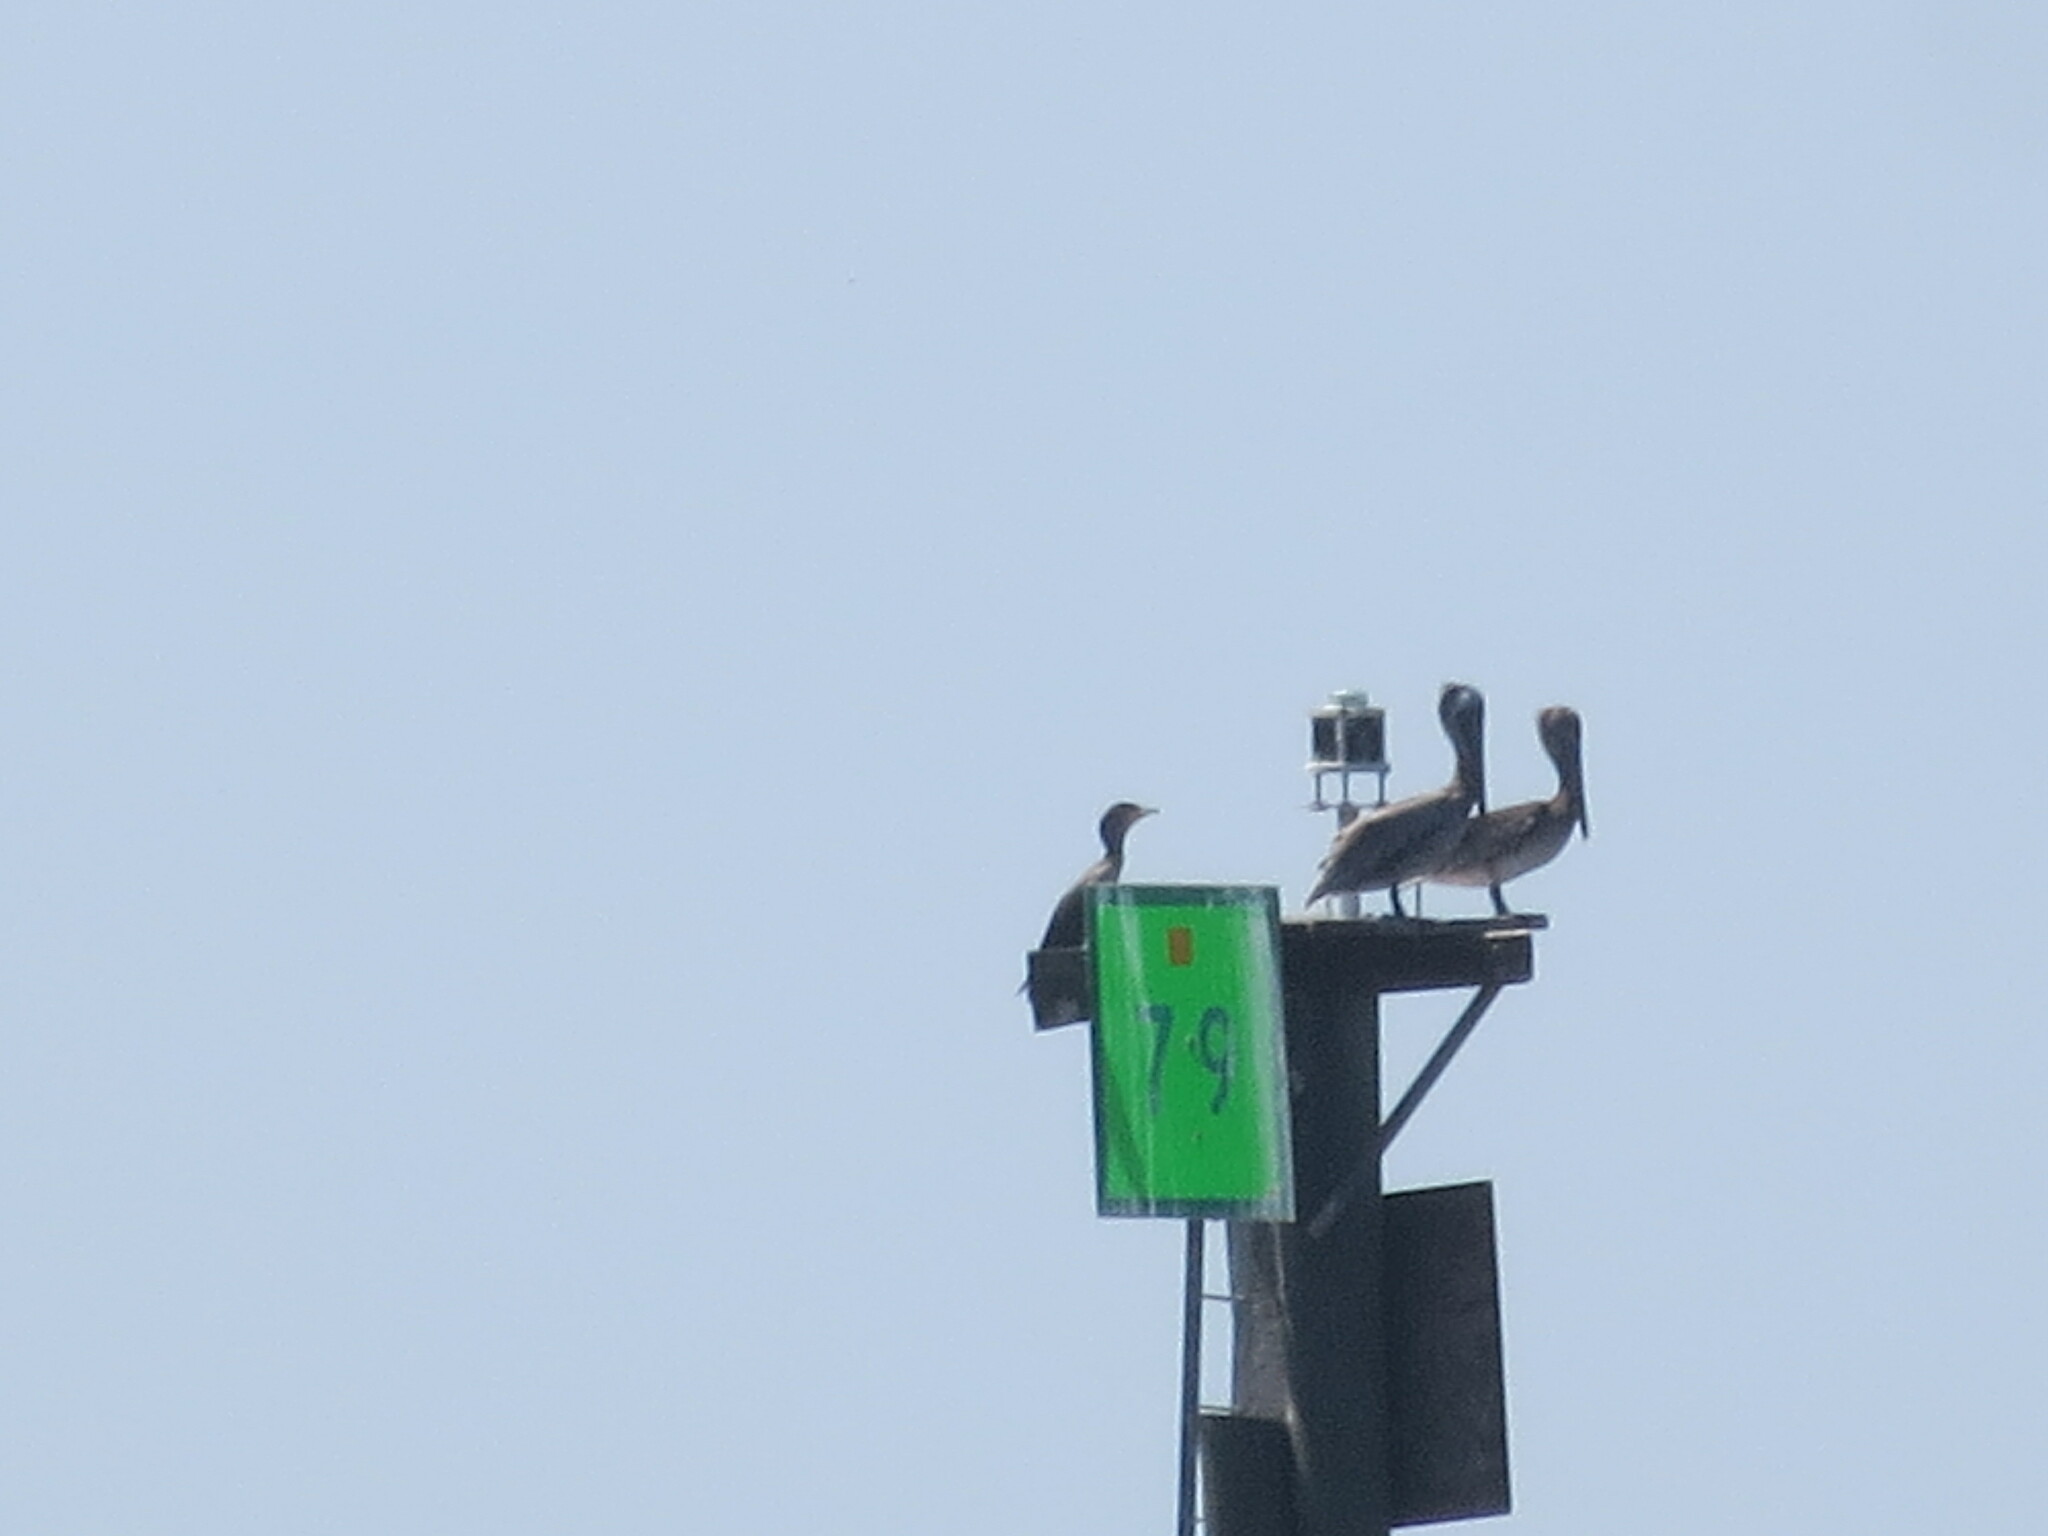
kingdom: Animalia
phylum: Chordata
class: Aves
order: Pelecaniformes
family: Pelecanidae
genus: Pelecanus
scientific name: Pelecanus occidentalis
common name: Brown pelican
